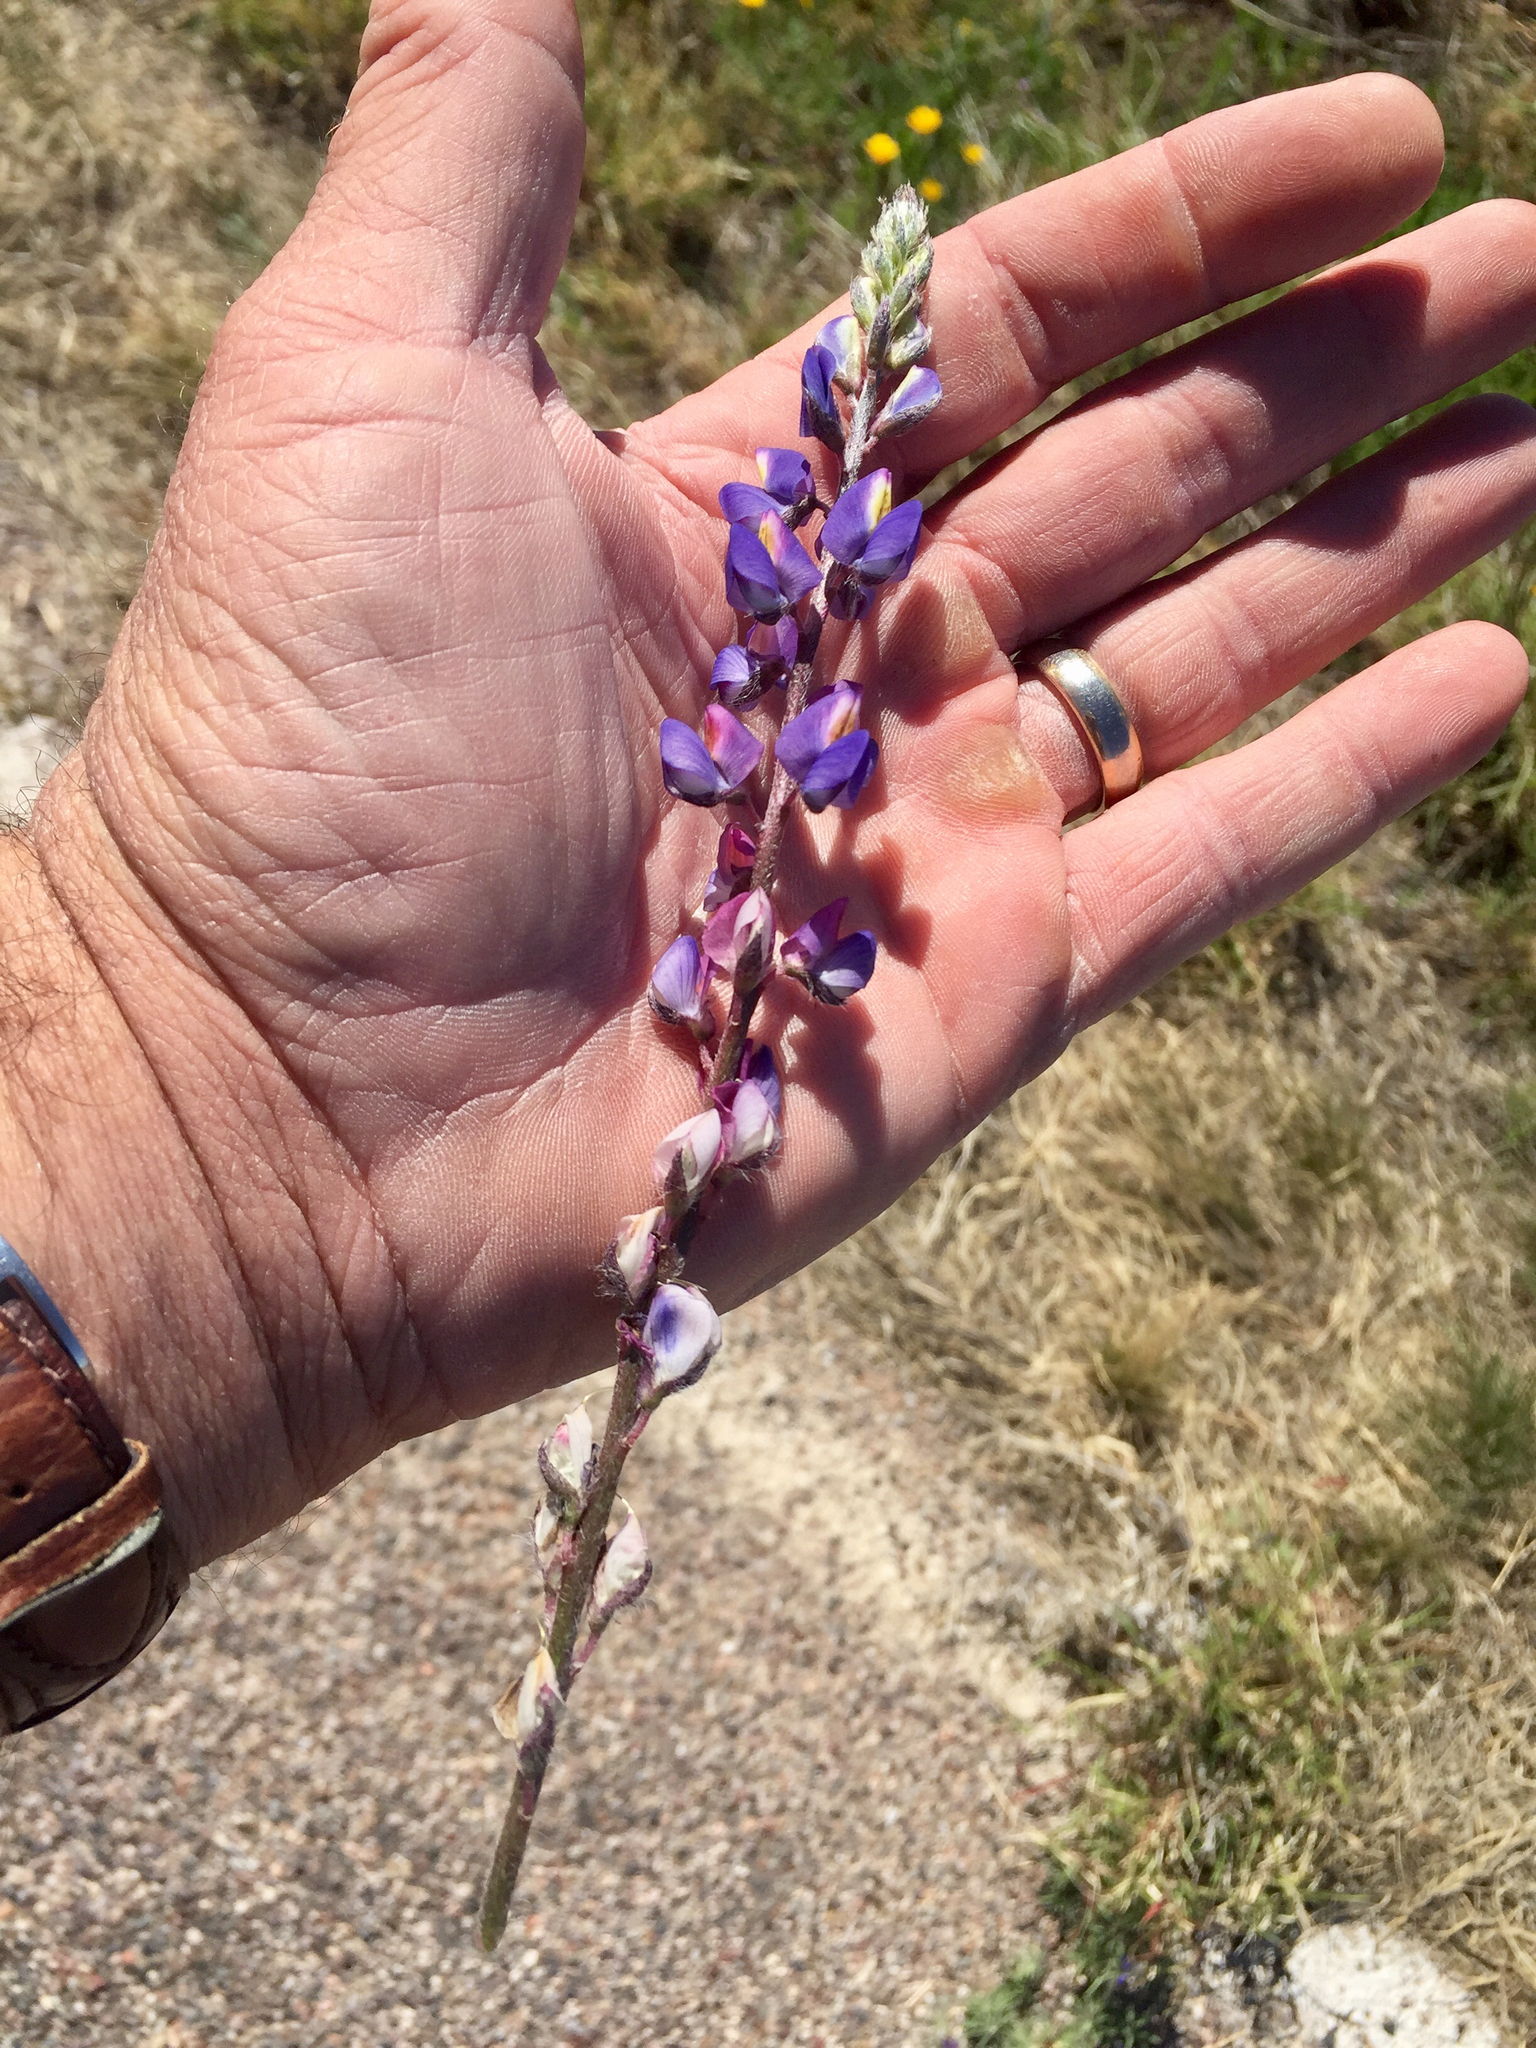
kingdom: Plantae
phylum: Tracheophyta
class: Magnoliopsida
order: Fabales
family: Fabaceae
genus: Lupinus
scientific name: Lupinus sparsiflorus
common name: Coulter's lupine
